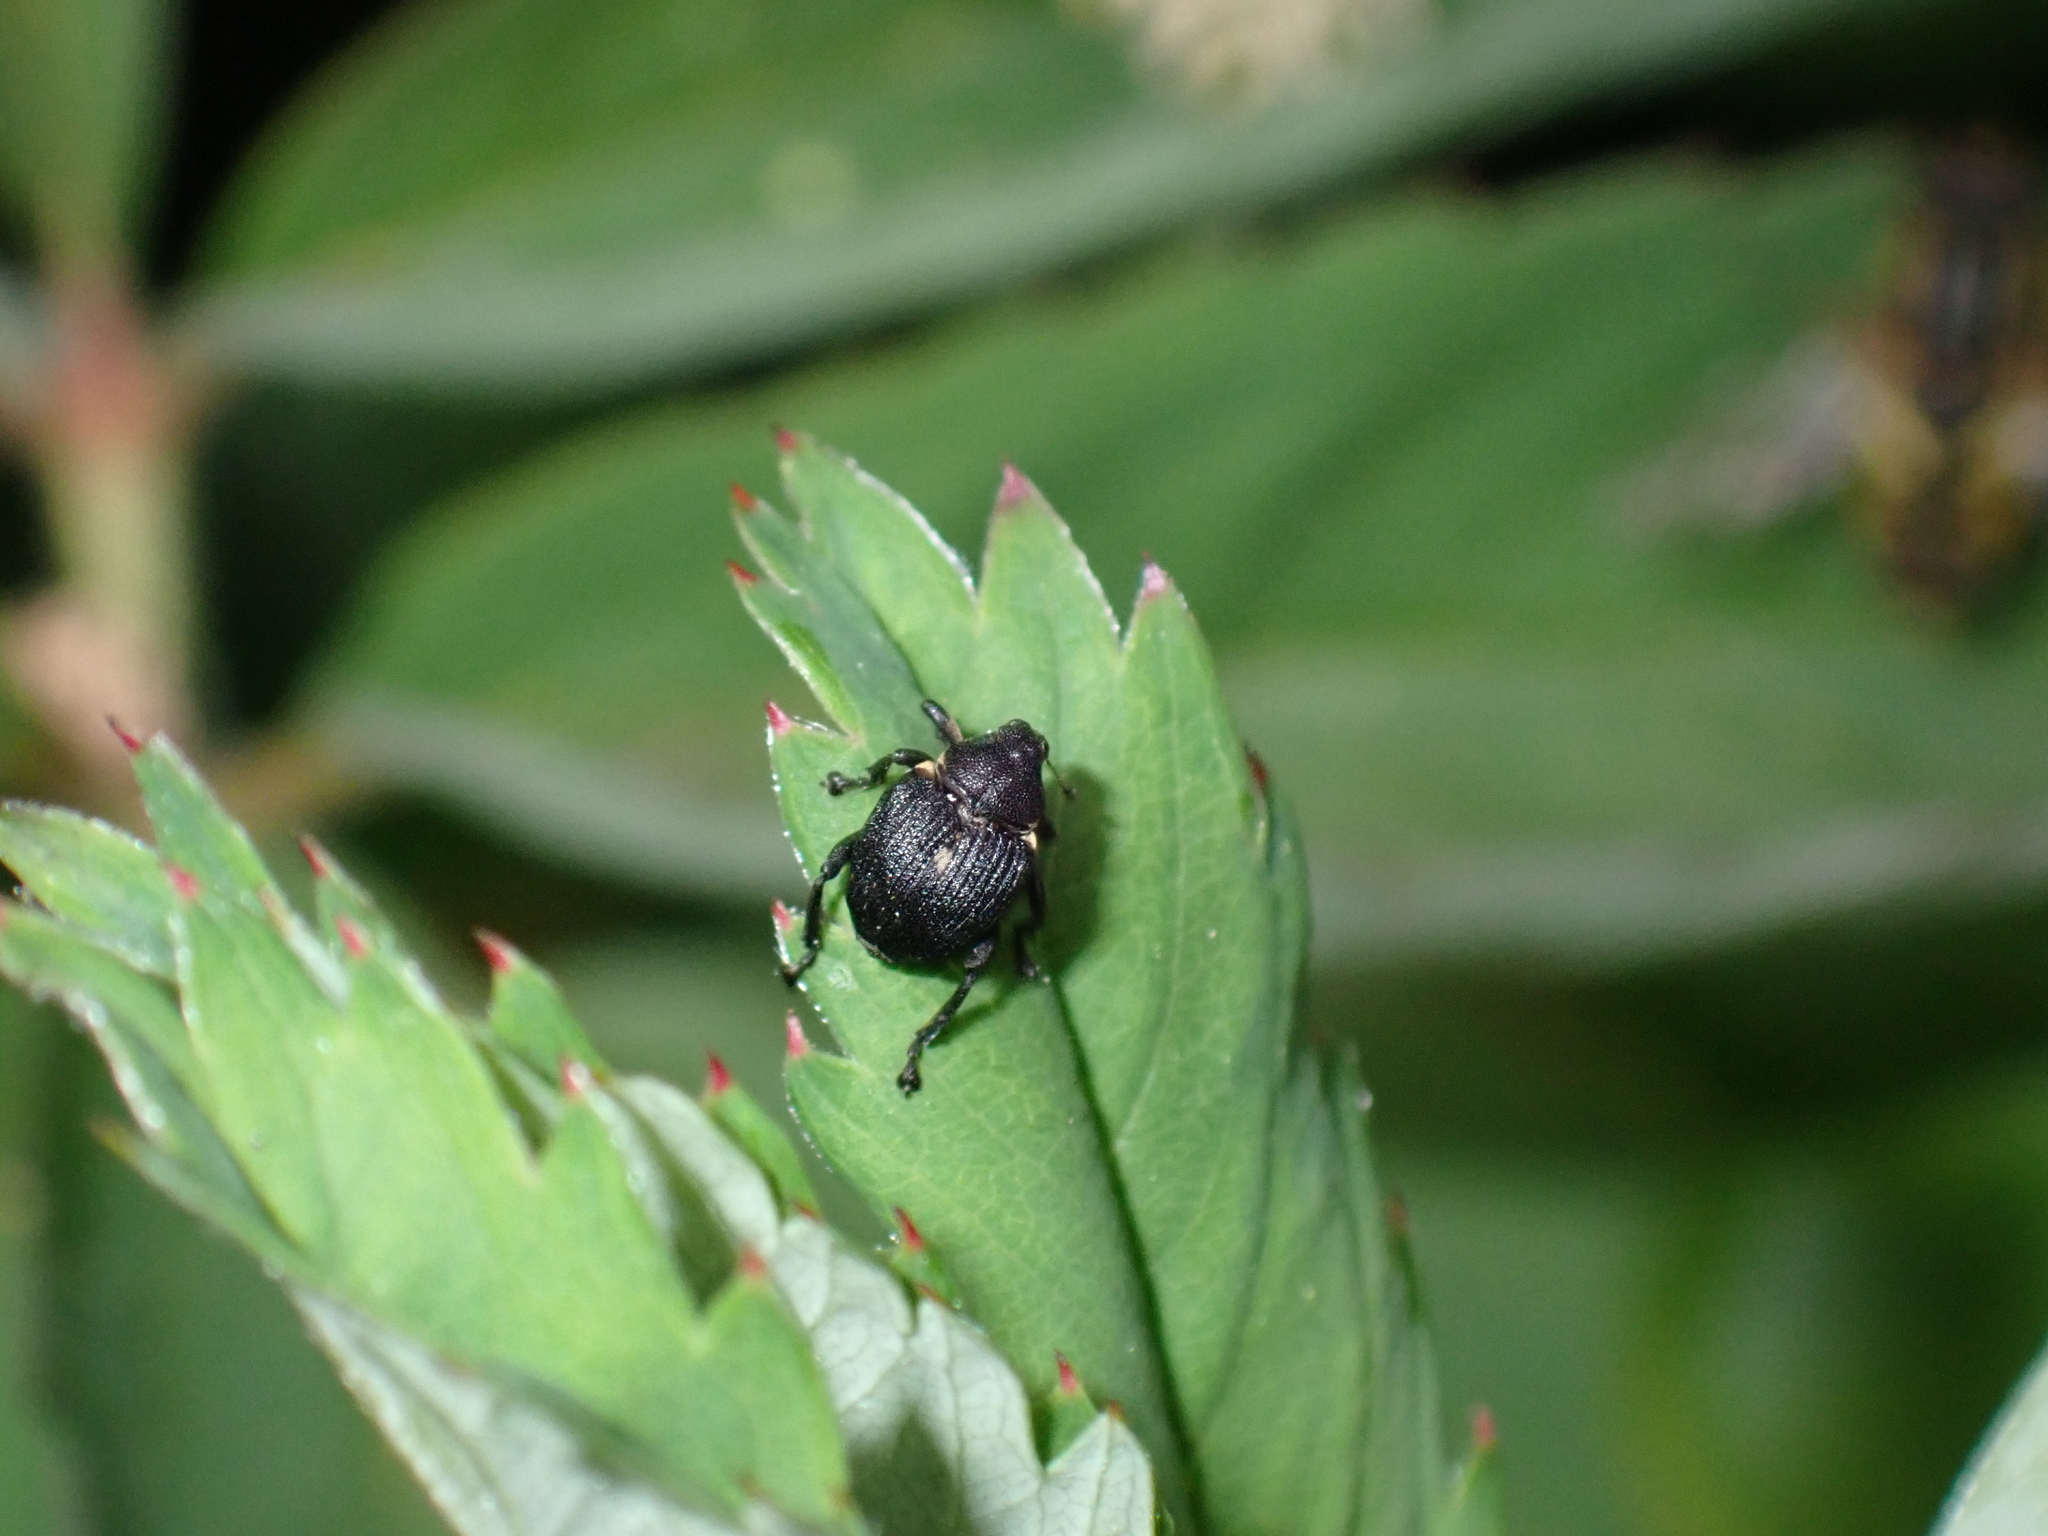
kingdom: Animalia
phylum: Arthropoda
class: Insecta
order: Coleoptera
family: Curculionidae
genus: Mononychus
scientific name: Mononychus punctumalbum
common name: Iris weevil
